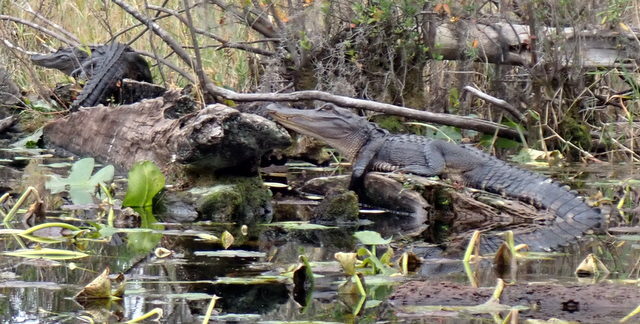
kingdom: Animalia
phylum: Chordata
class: Crocodylia
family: Alligatoridae
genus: Alligator
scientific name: Alligator mississippiensis
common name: American alligator
